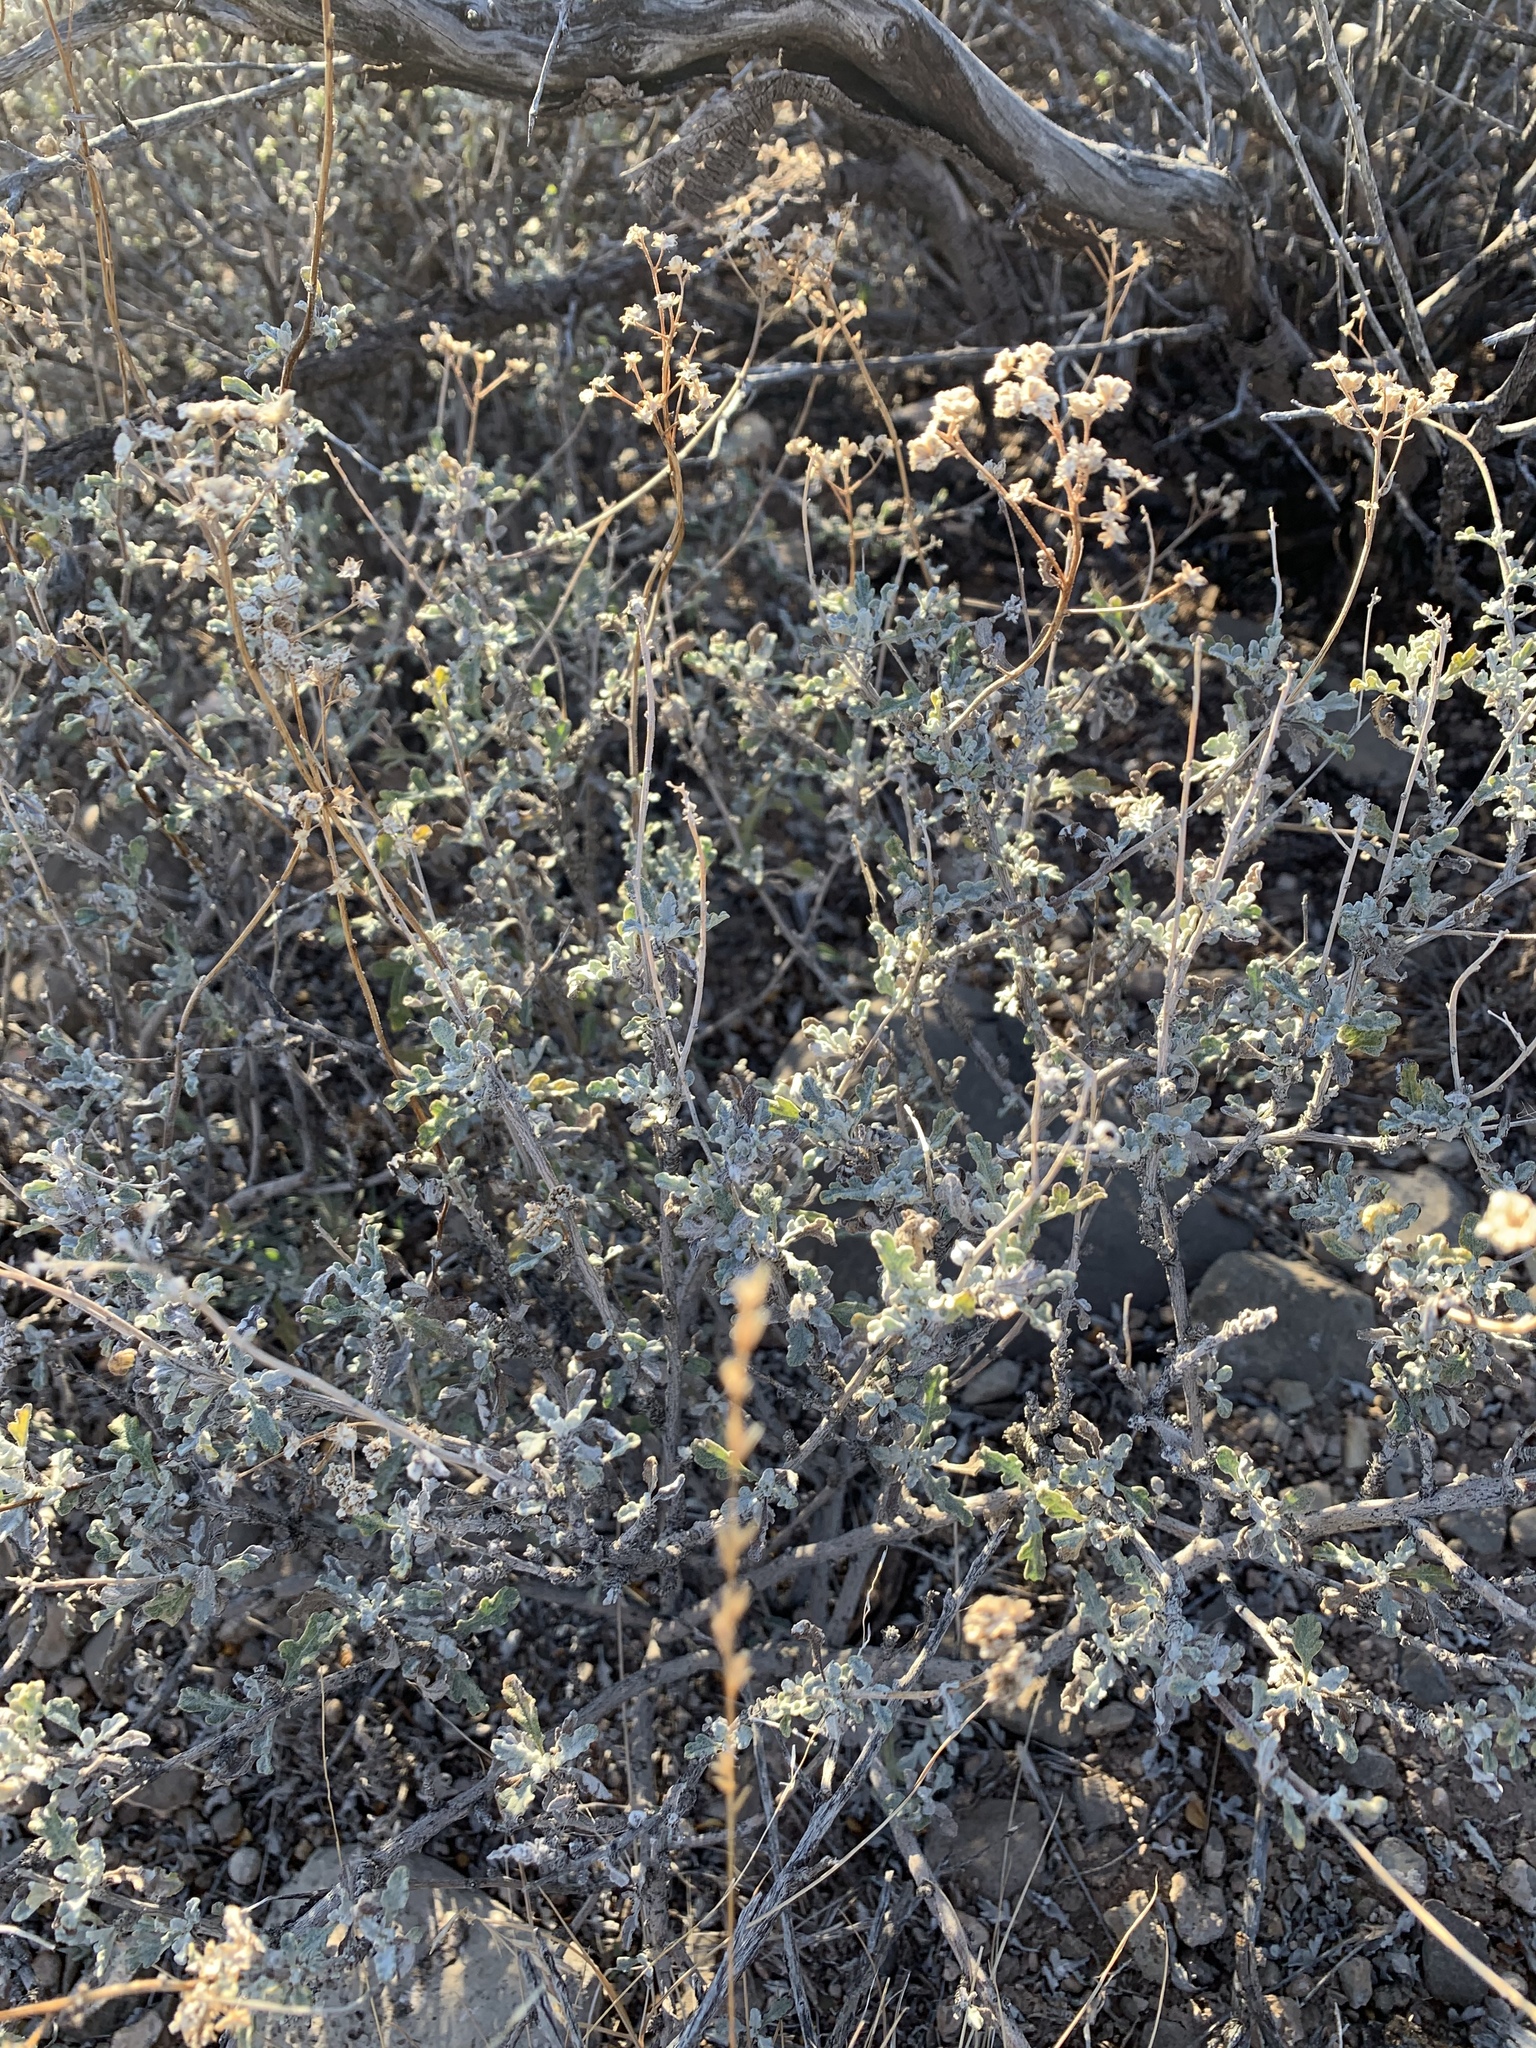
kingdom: Plantae
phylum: Tracheophyta
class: Magnoliopsida
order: Asterales
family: Asteraceae
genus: Parthenium
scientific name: Parthenium incanum
